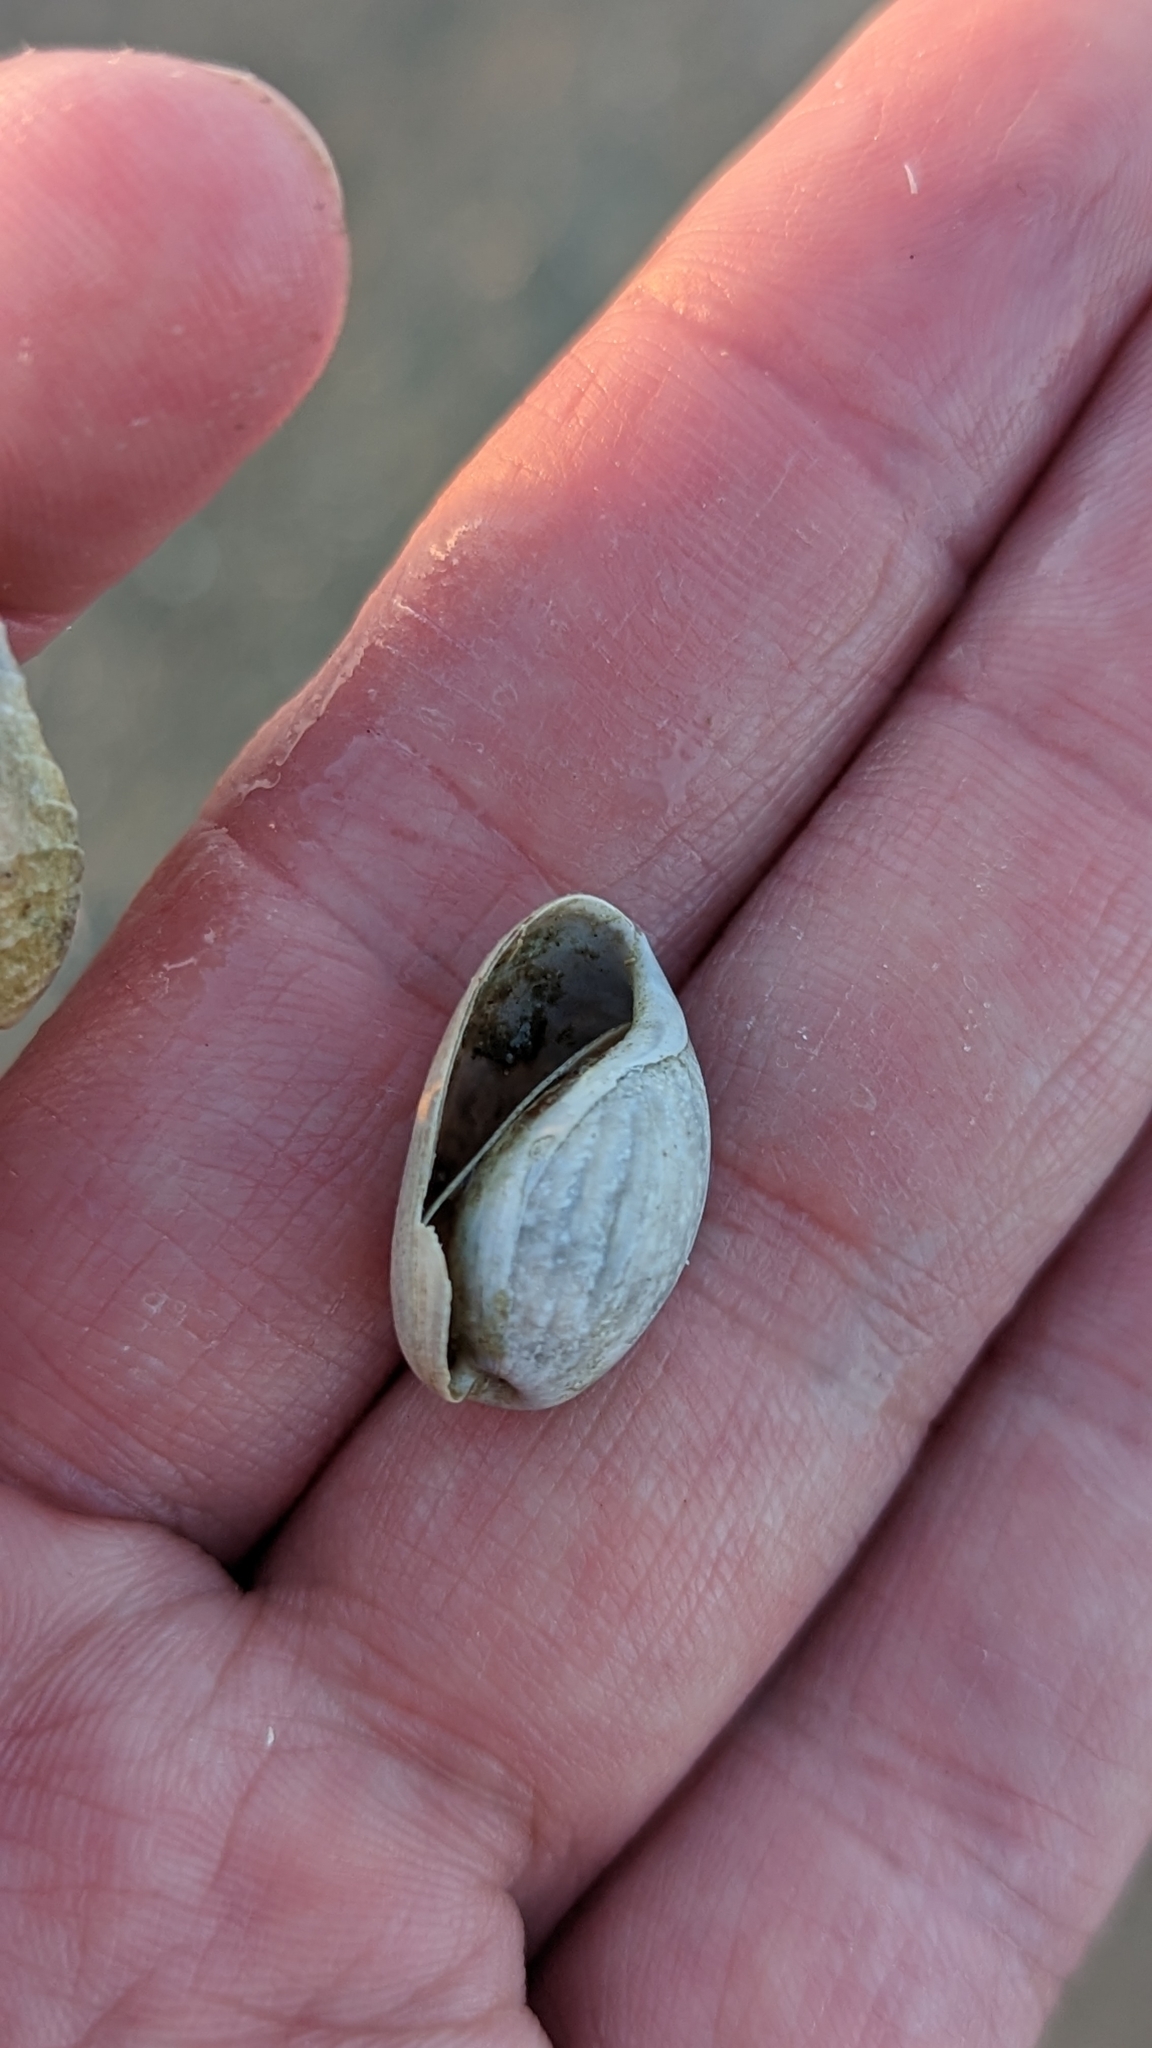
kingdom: Animalia
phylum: Mollusca
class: Gastropoda
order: Cephalaspidea
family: Bullidae
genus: Bulla
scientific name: Bulla occidentalis
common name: Common west-indian bubble
